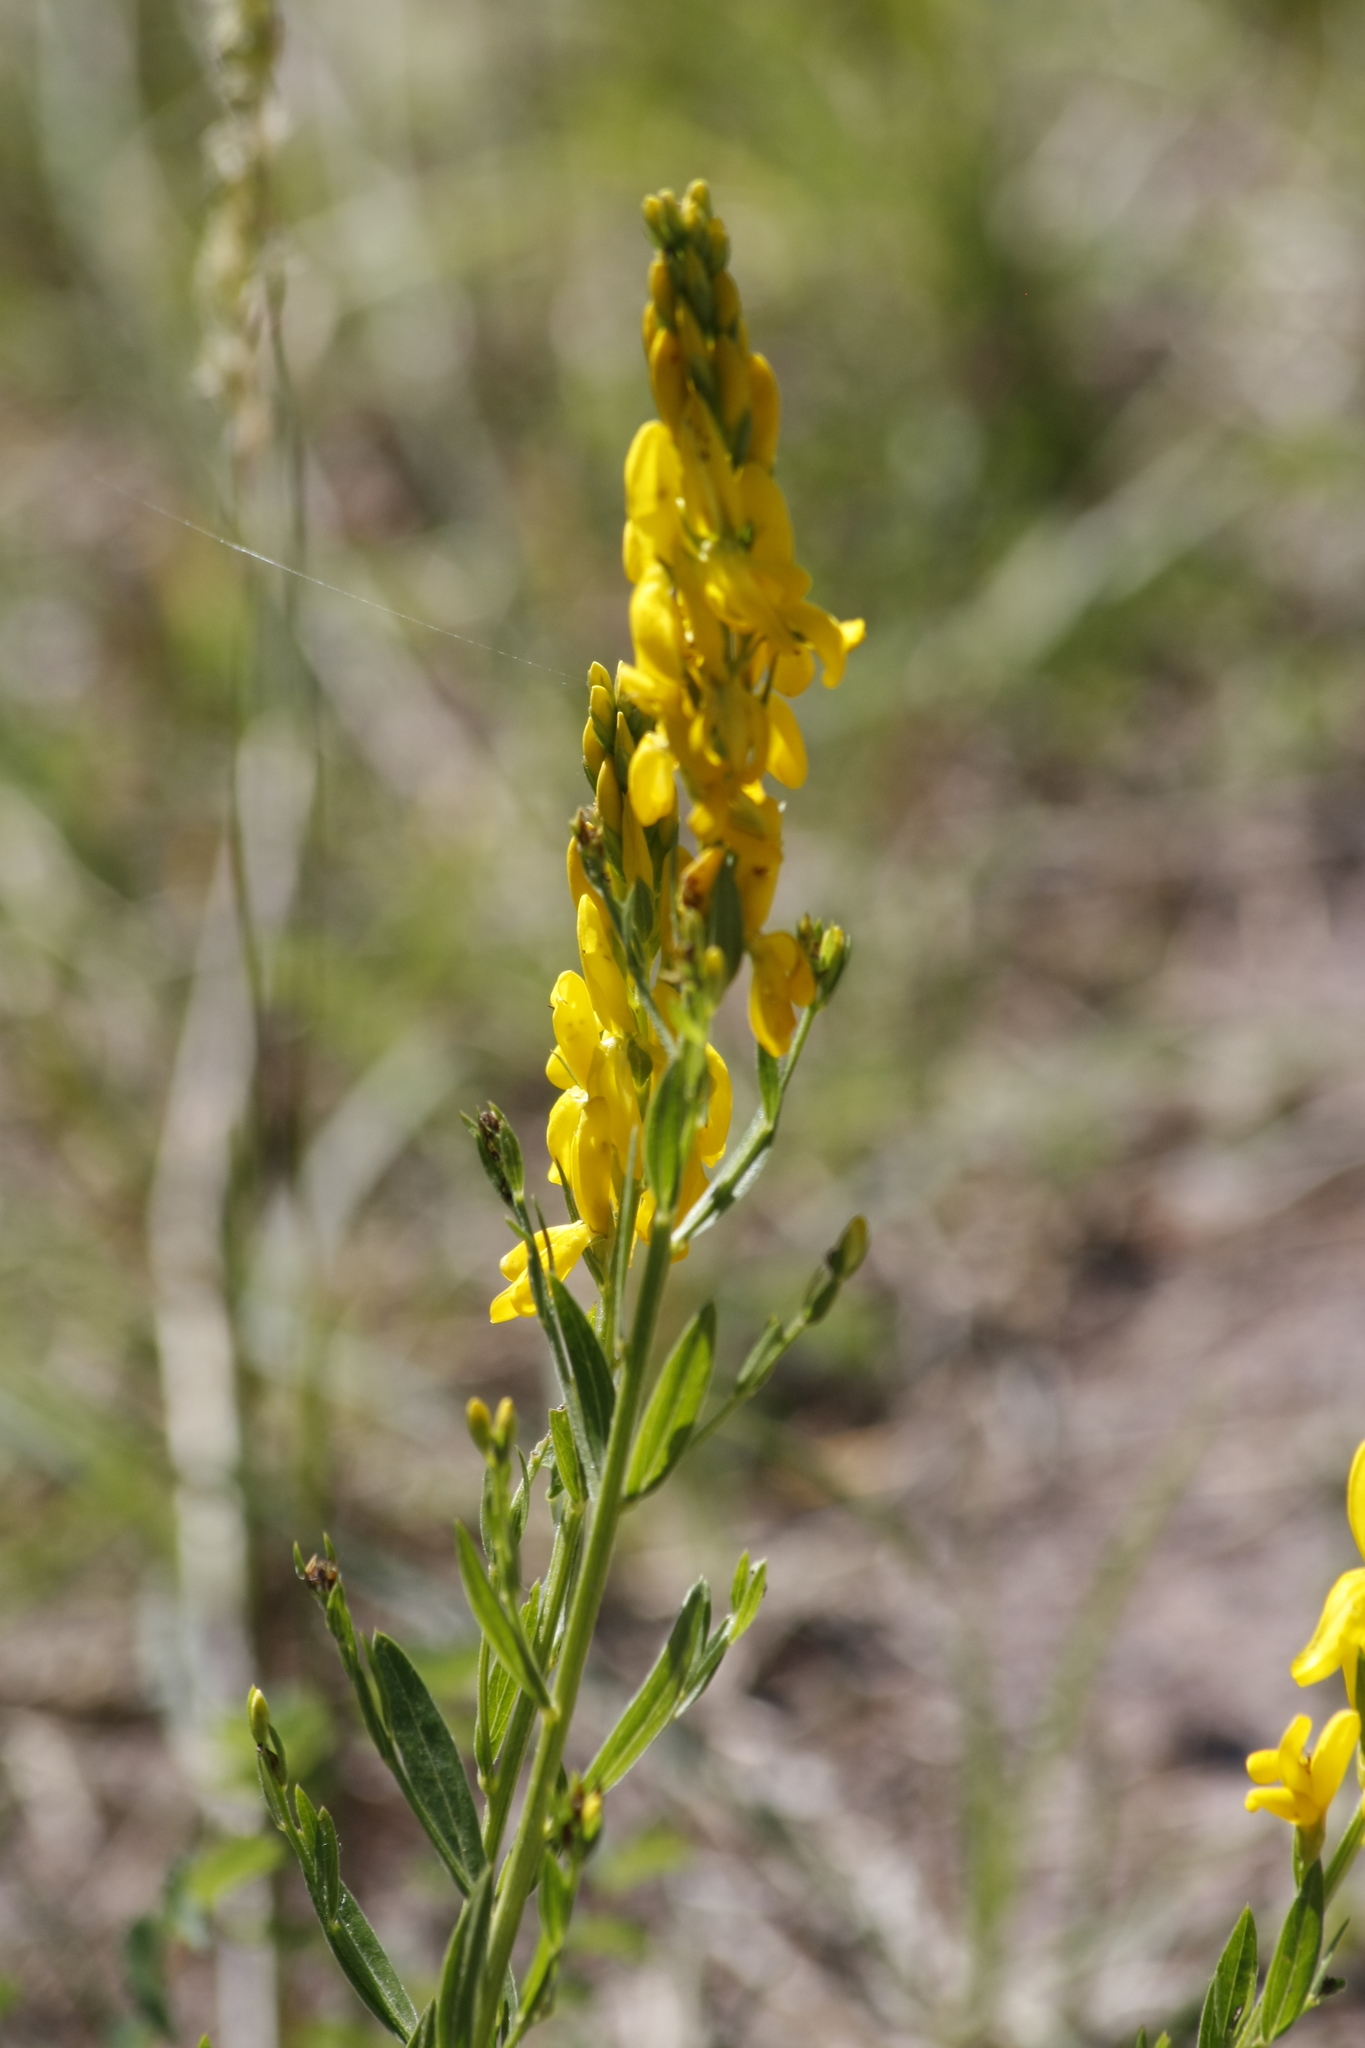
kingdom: Plantae
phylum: Tracheophyta
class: Magnoliopsida
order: Fabales
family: Fabaceae
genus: Genista
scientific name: Genista tinctoria
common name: Dyer's greenweed
